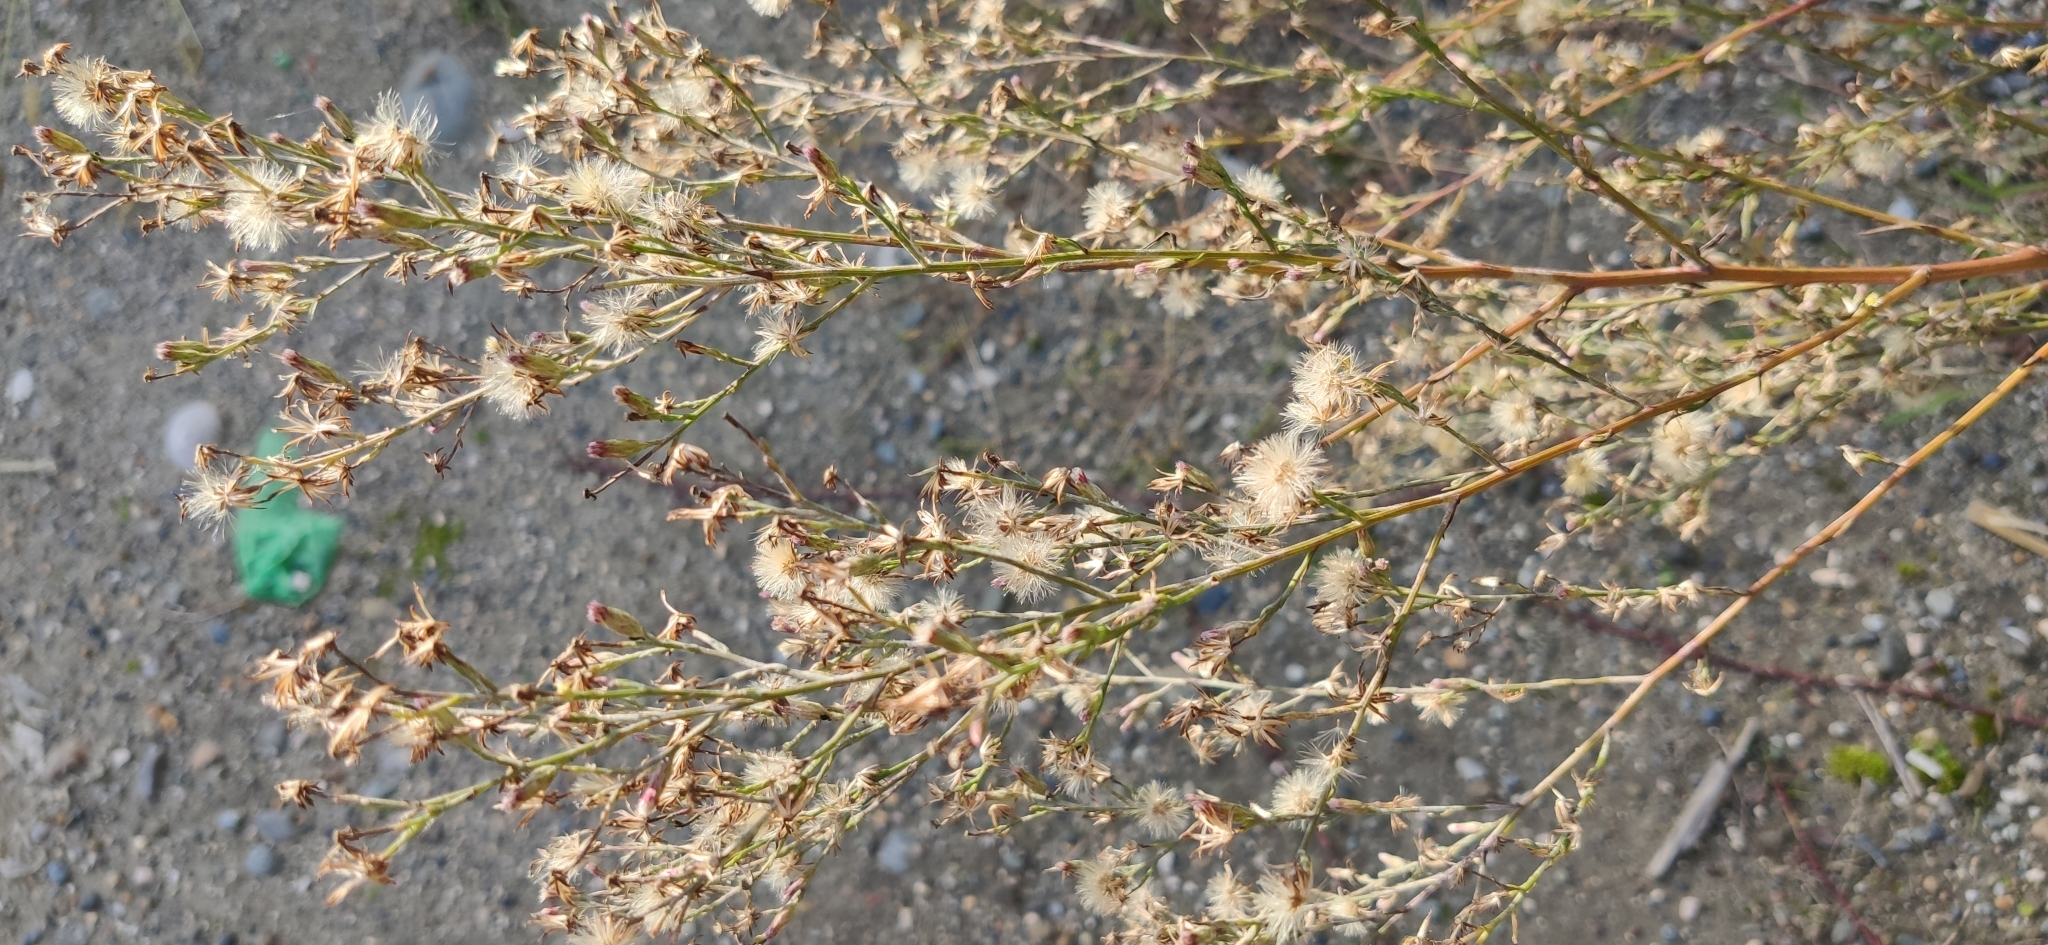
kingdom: Plantae
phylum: Tracheophyta
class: Magnoliopsida
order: Asterales
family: Asteraceae
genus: Erigeron
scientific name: Erigeron canadensis
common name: Canadian fleabane
